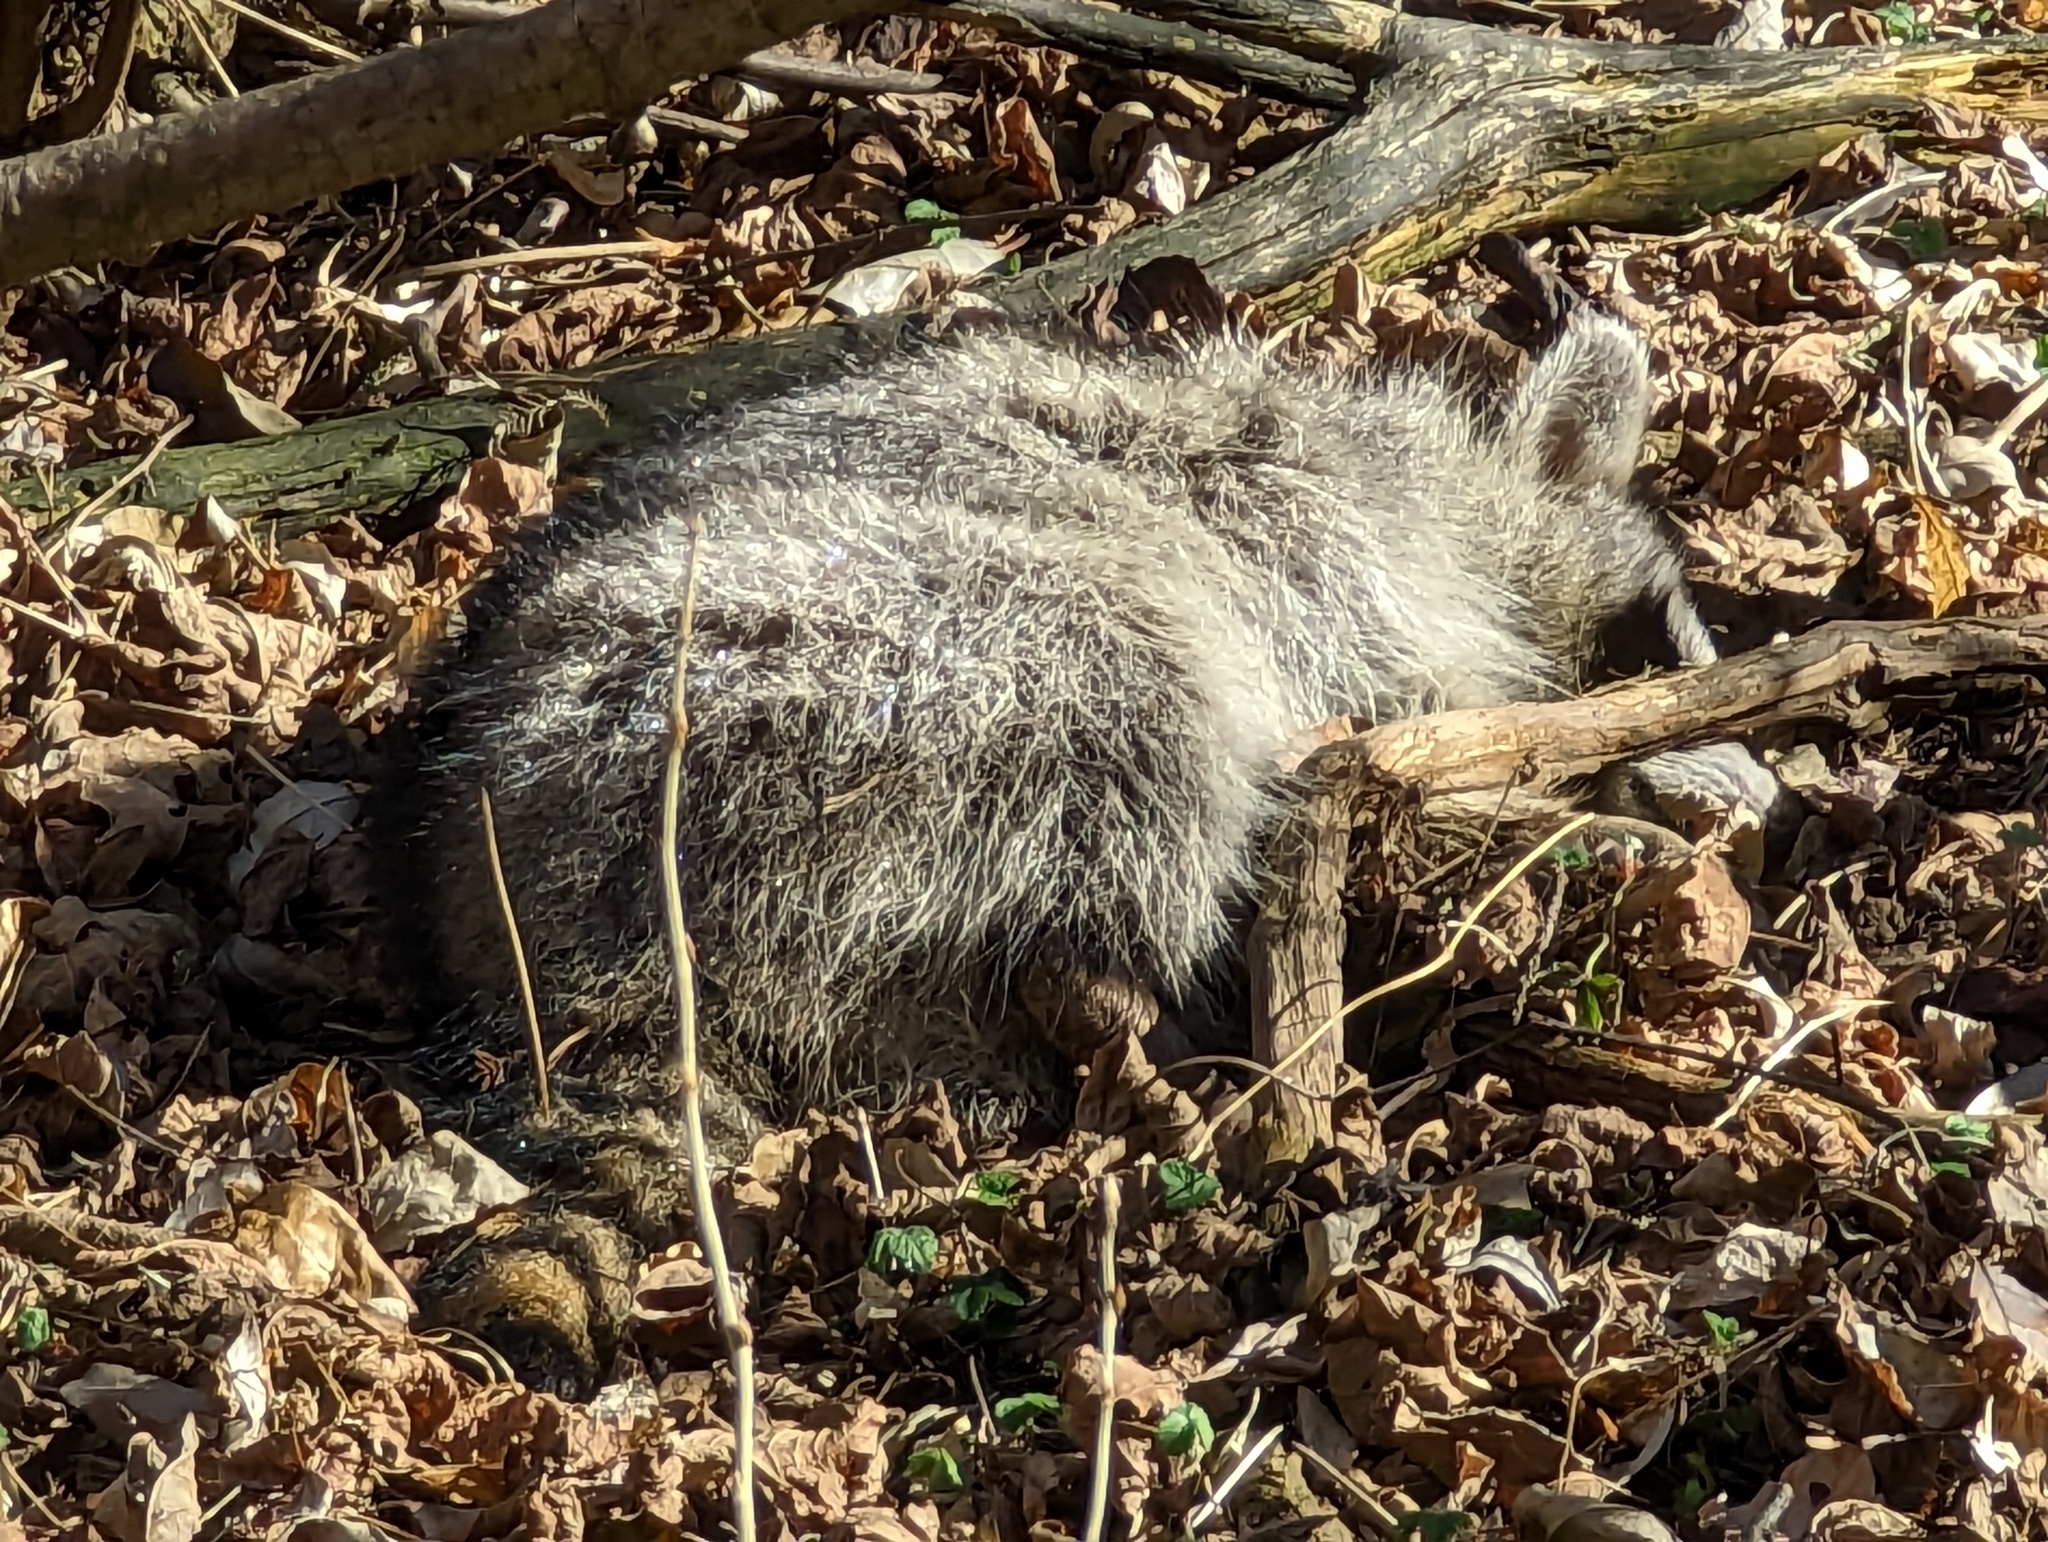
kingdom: Animalia
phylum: Chordata
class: Mammalia
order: Carnivora
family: Procyonidae
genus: Procyon
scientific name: Procyon lotor
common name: Raccoon
